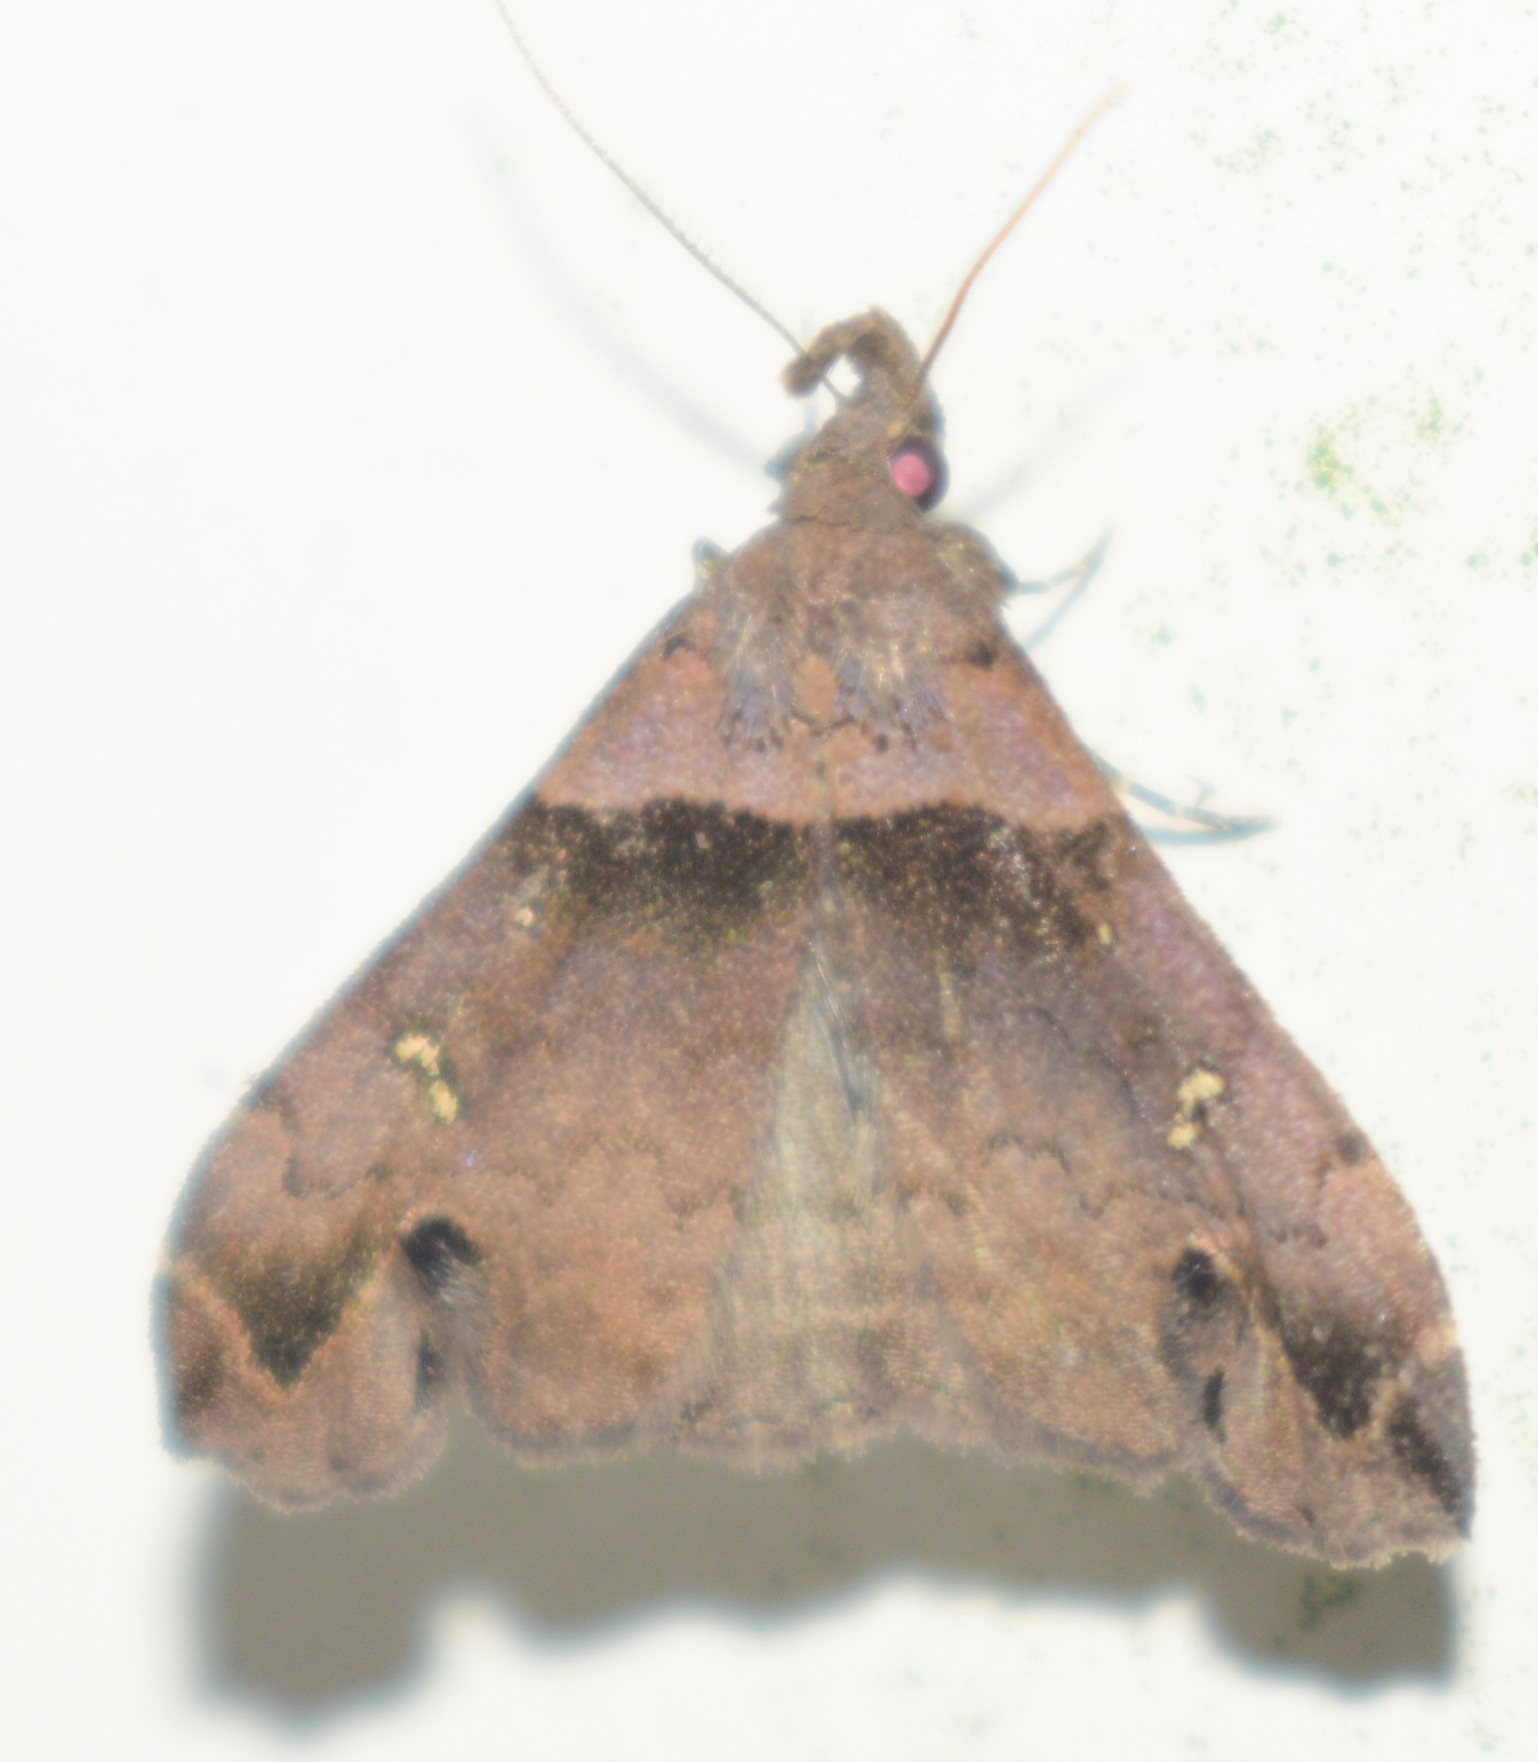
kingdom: Animalia
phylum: Arthropoda
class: Insecta
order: Lepidoptera
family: Erebidae
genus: Lascoria
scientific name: Lascoria ambigualis
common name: Ambiguous moth
